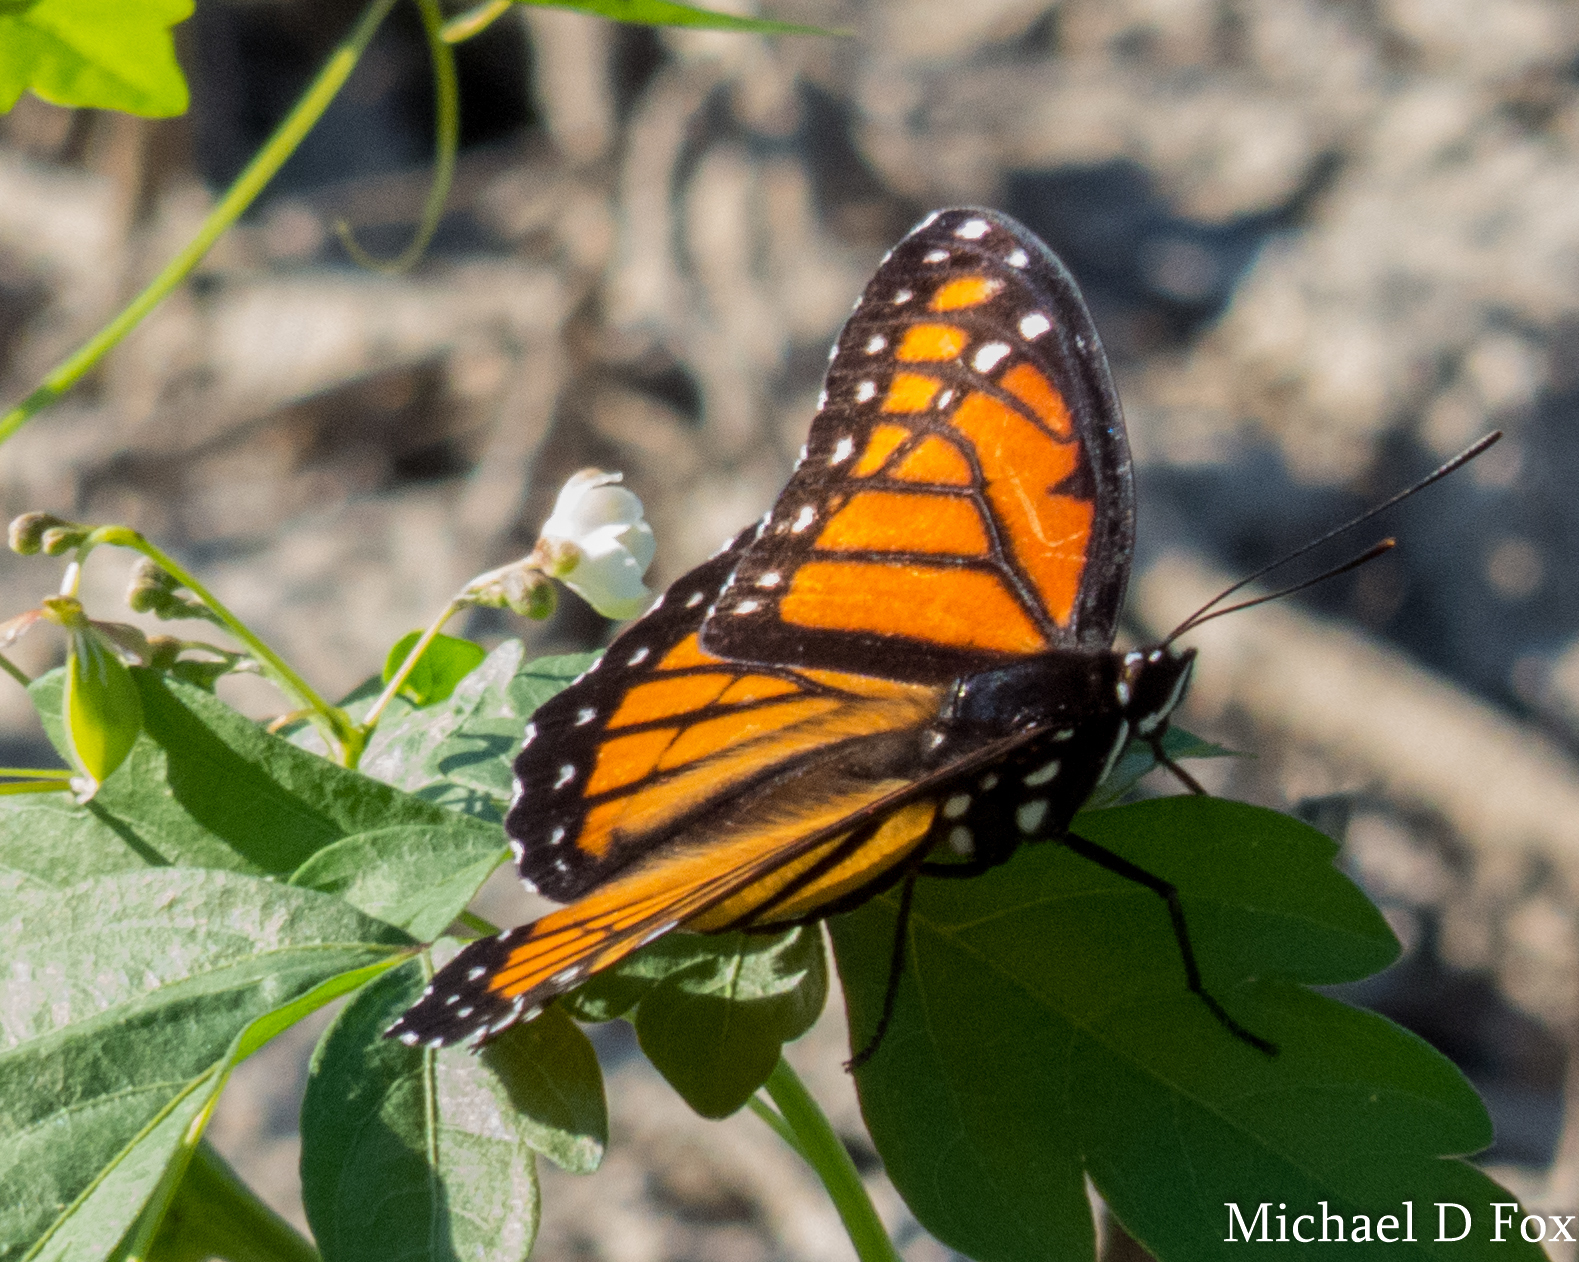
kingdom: Animalia
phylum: Arthropoda
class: Insecta
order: Lepidoptera
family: Nymphalidae
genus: Limenitis
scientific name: Limenitis archippus
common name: Viceroy
